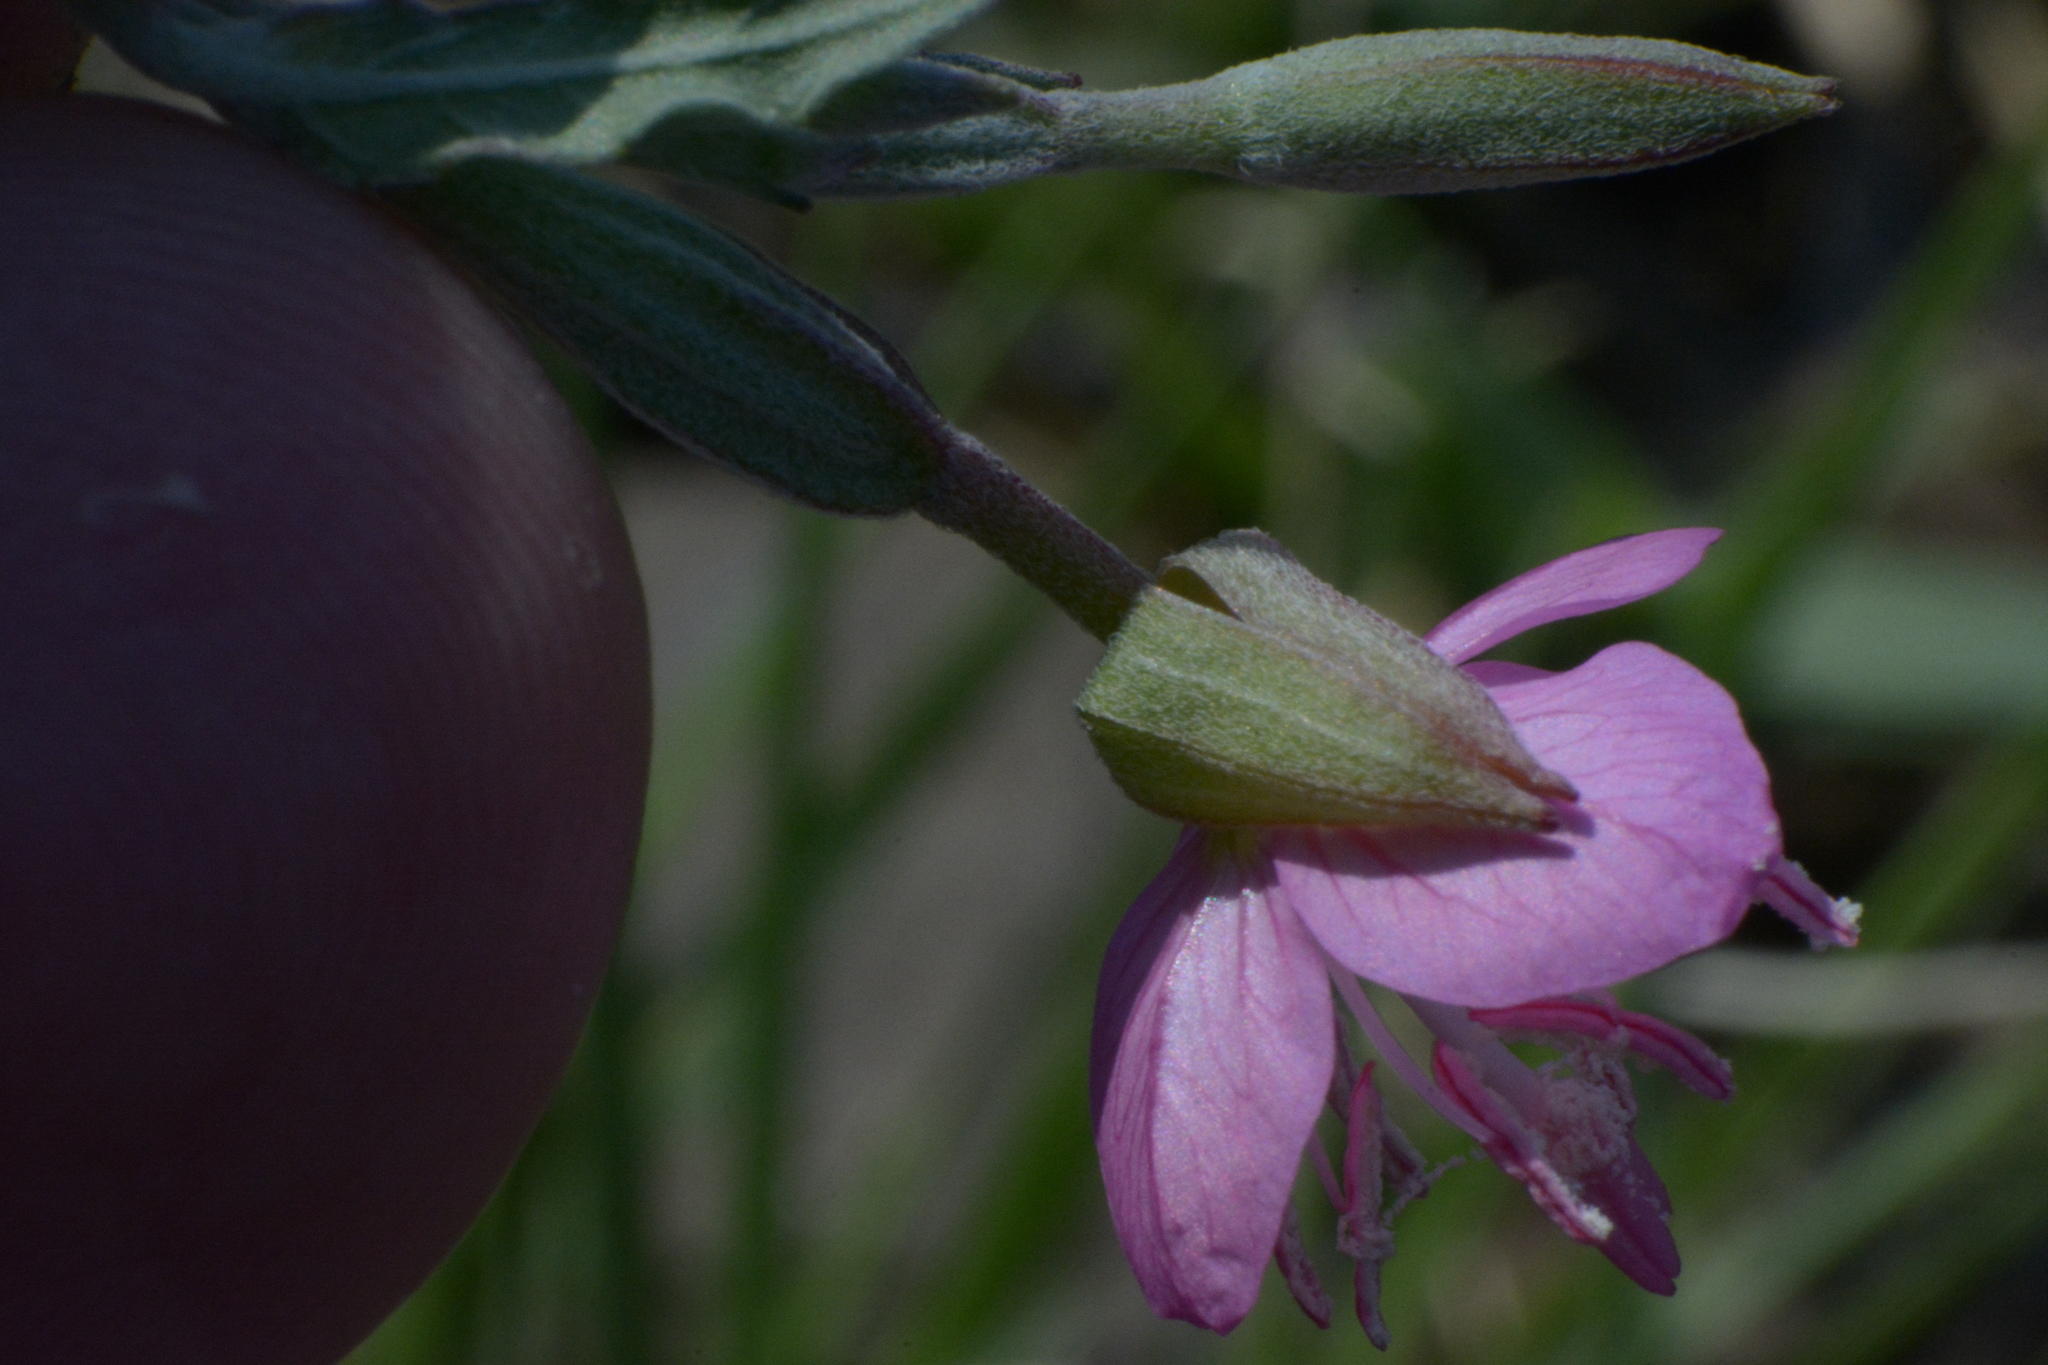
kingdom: Plantae
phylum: Tracheophyta
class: Magnoliopsida
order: Myrtales
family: Onagraceae
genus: Oenothera
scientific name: Oenothera rosea
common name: Rosy evening-primrose
